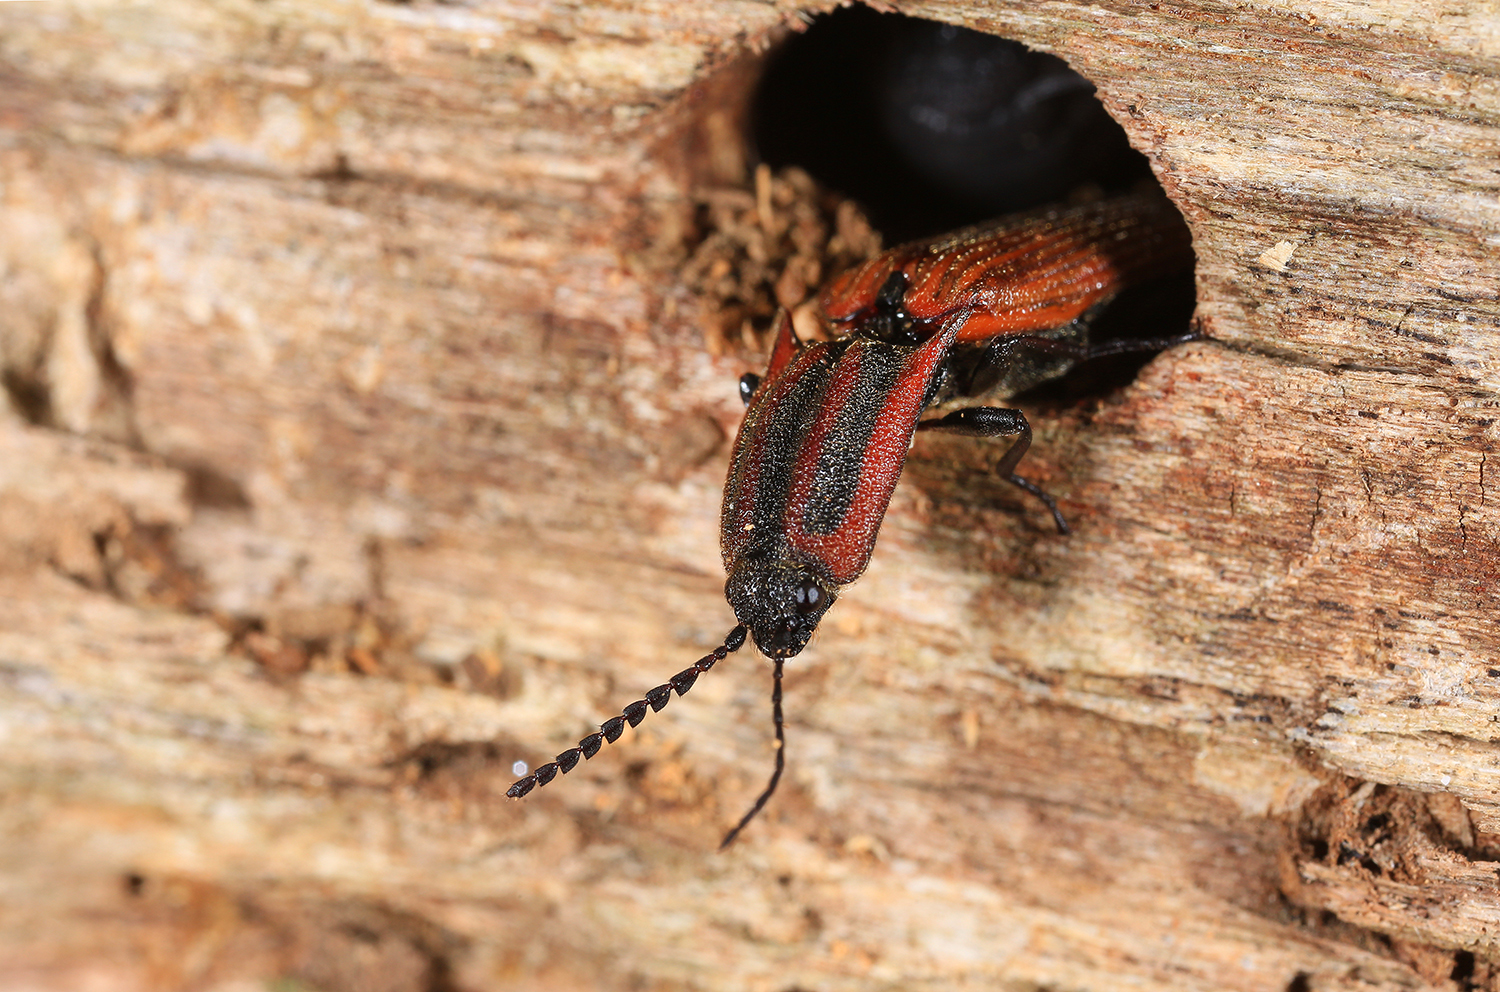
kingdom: Animalia
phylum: Arthropoda
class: Insecta
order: Coleoptera
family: Elateridae
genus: Elatichrosis
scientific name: Elatichrosis
